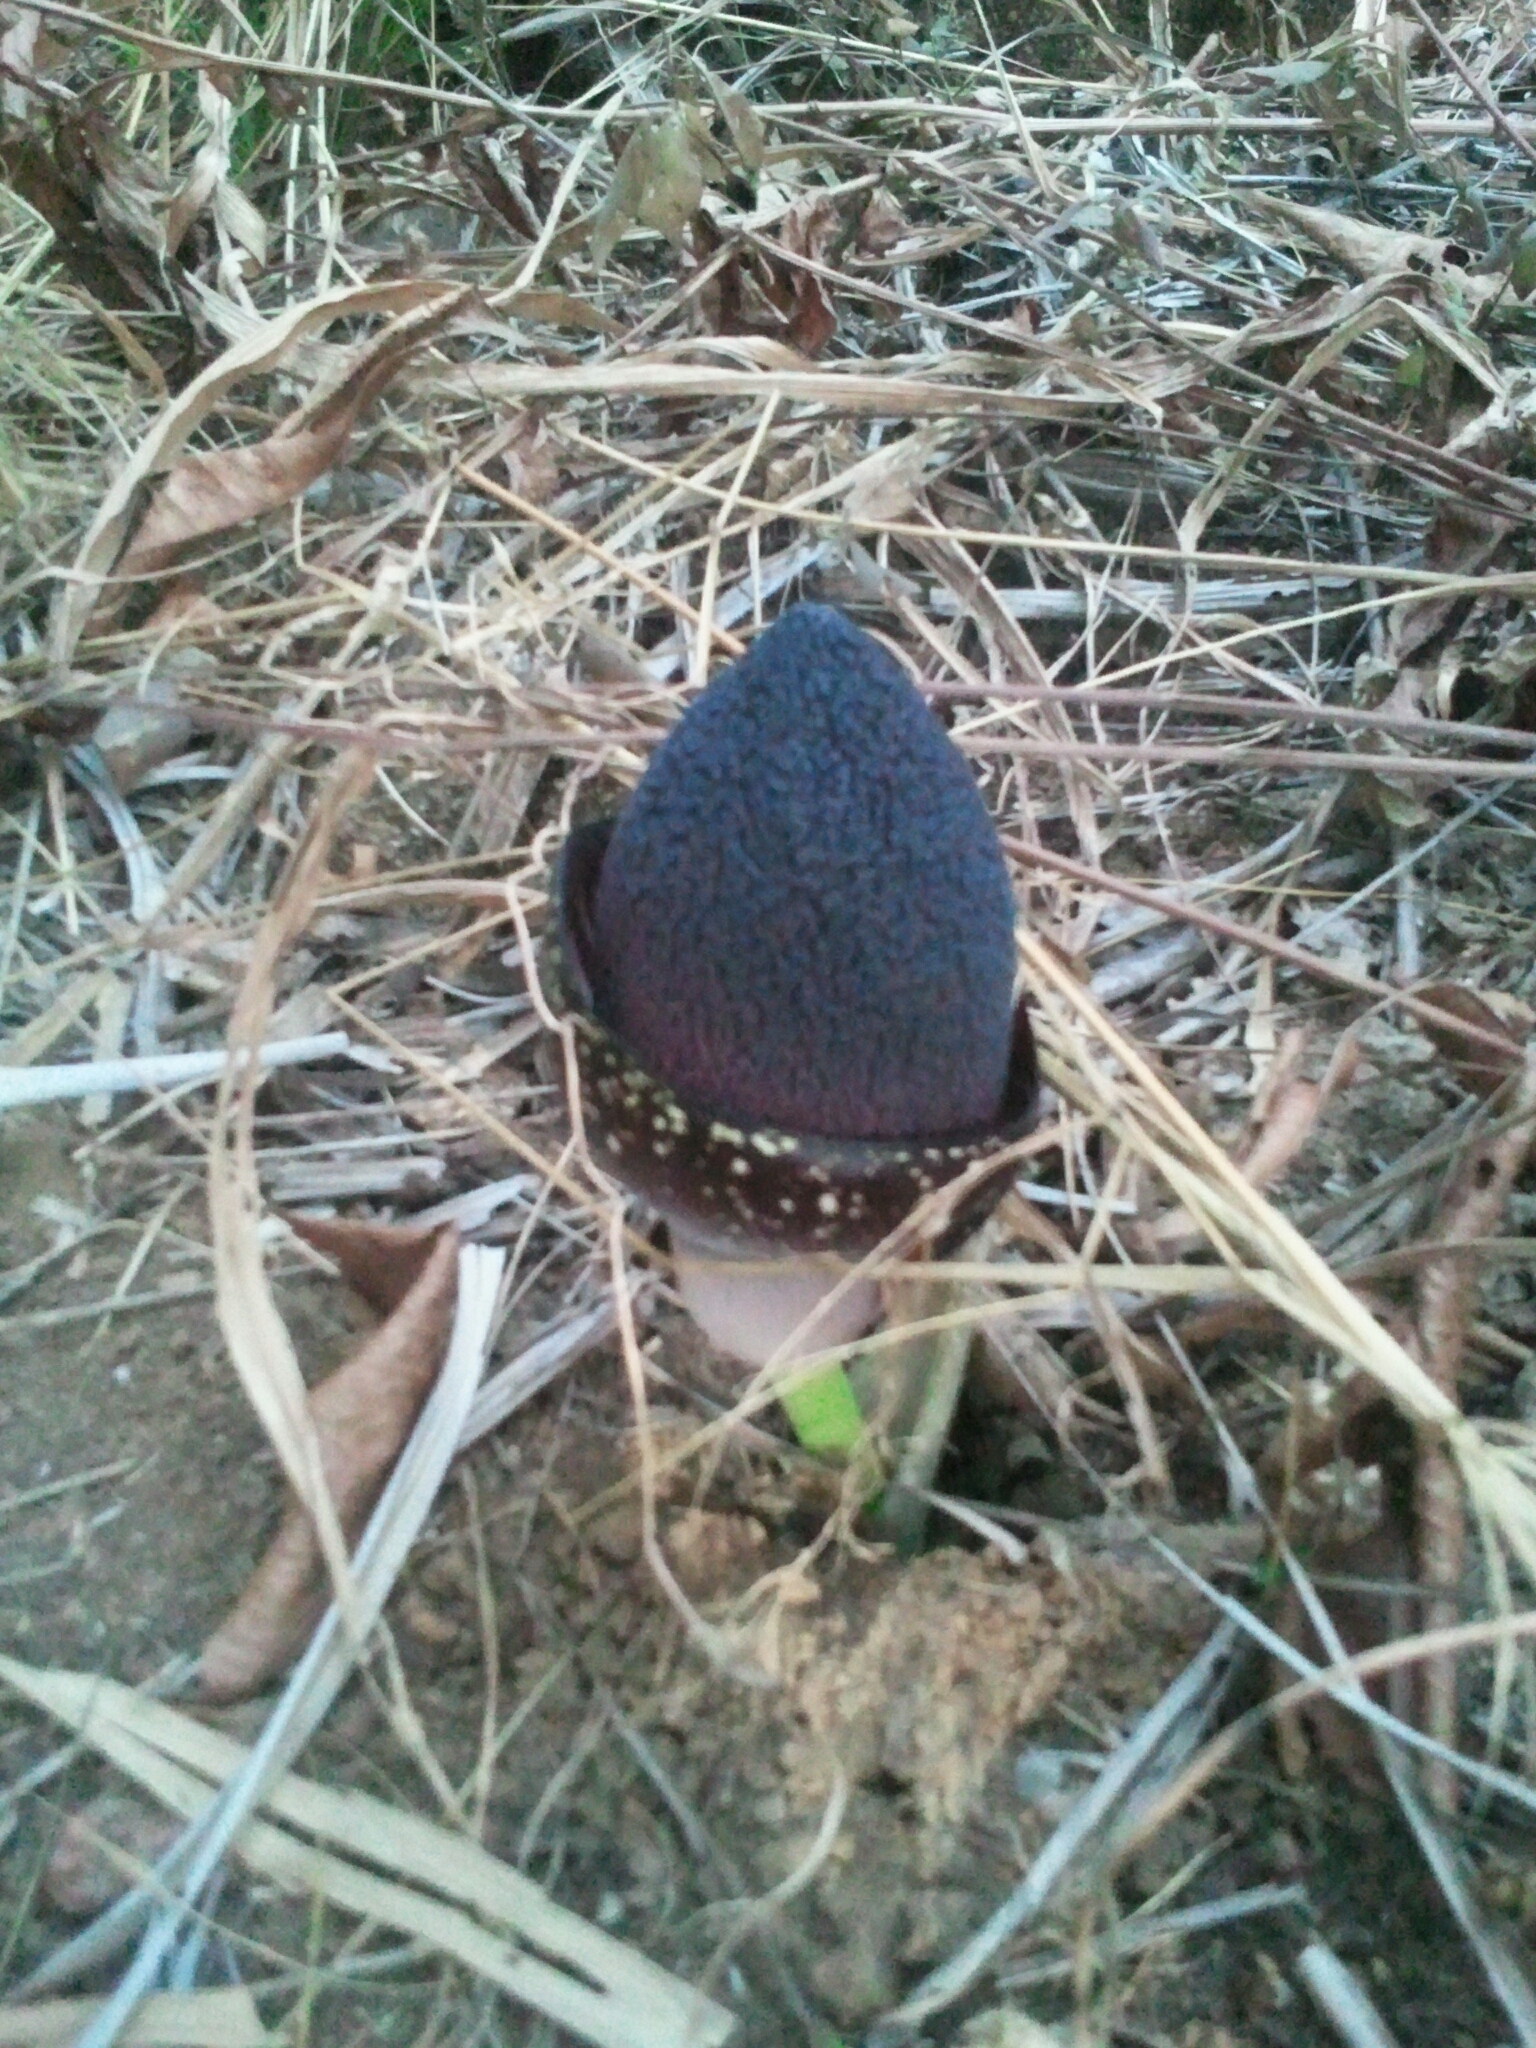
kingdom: Plantae
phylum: Tracheophyta
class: Liliopsida
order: Alismatales
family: Araceae
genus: Amorphophallus
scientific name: Amorphophallus aphyllus
